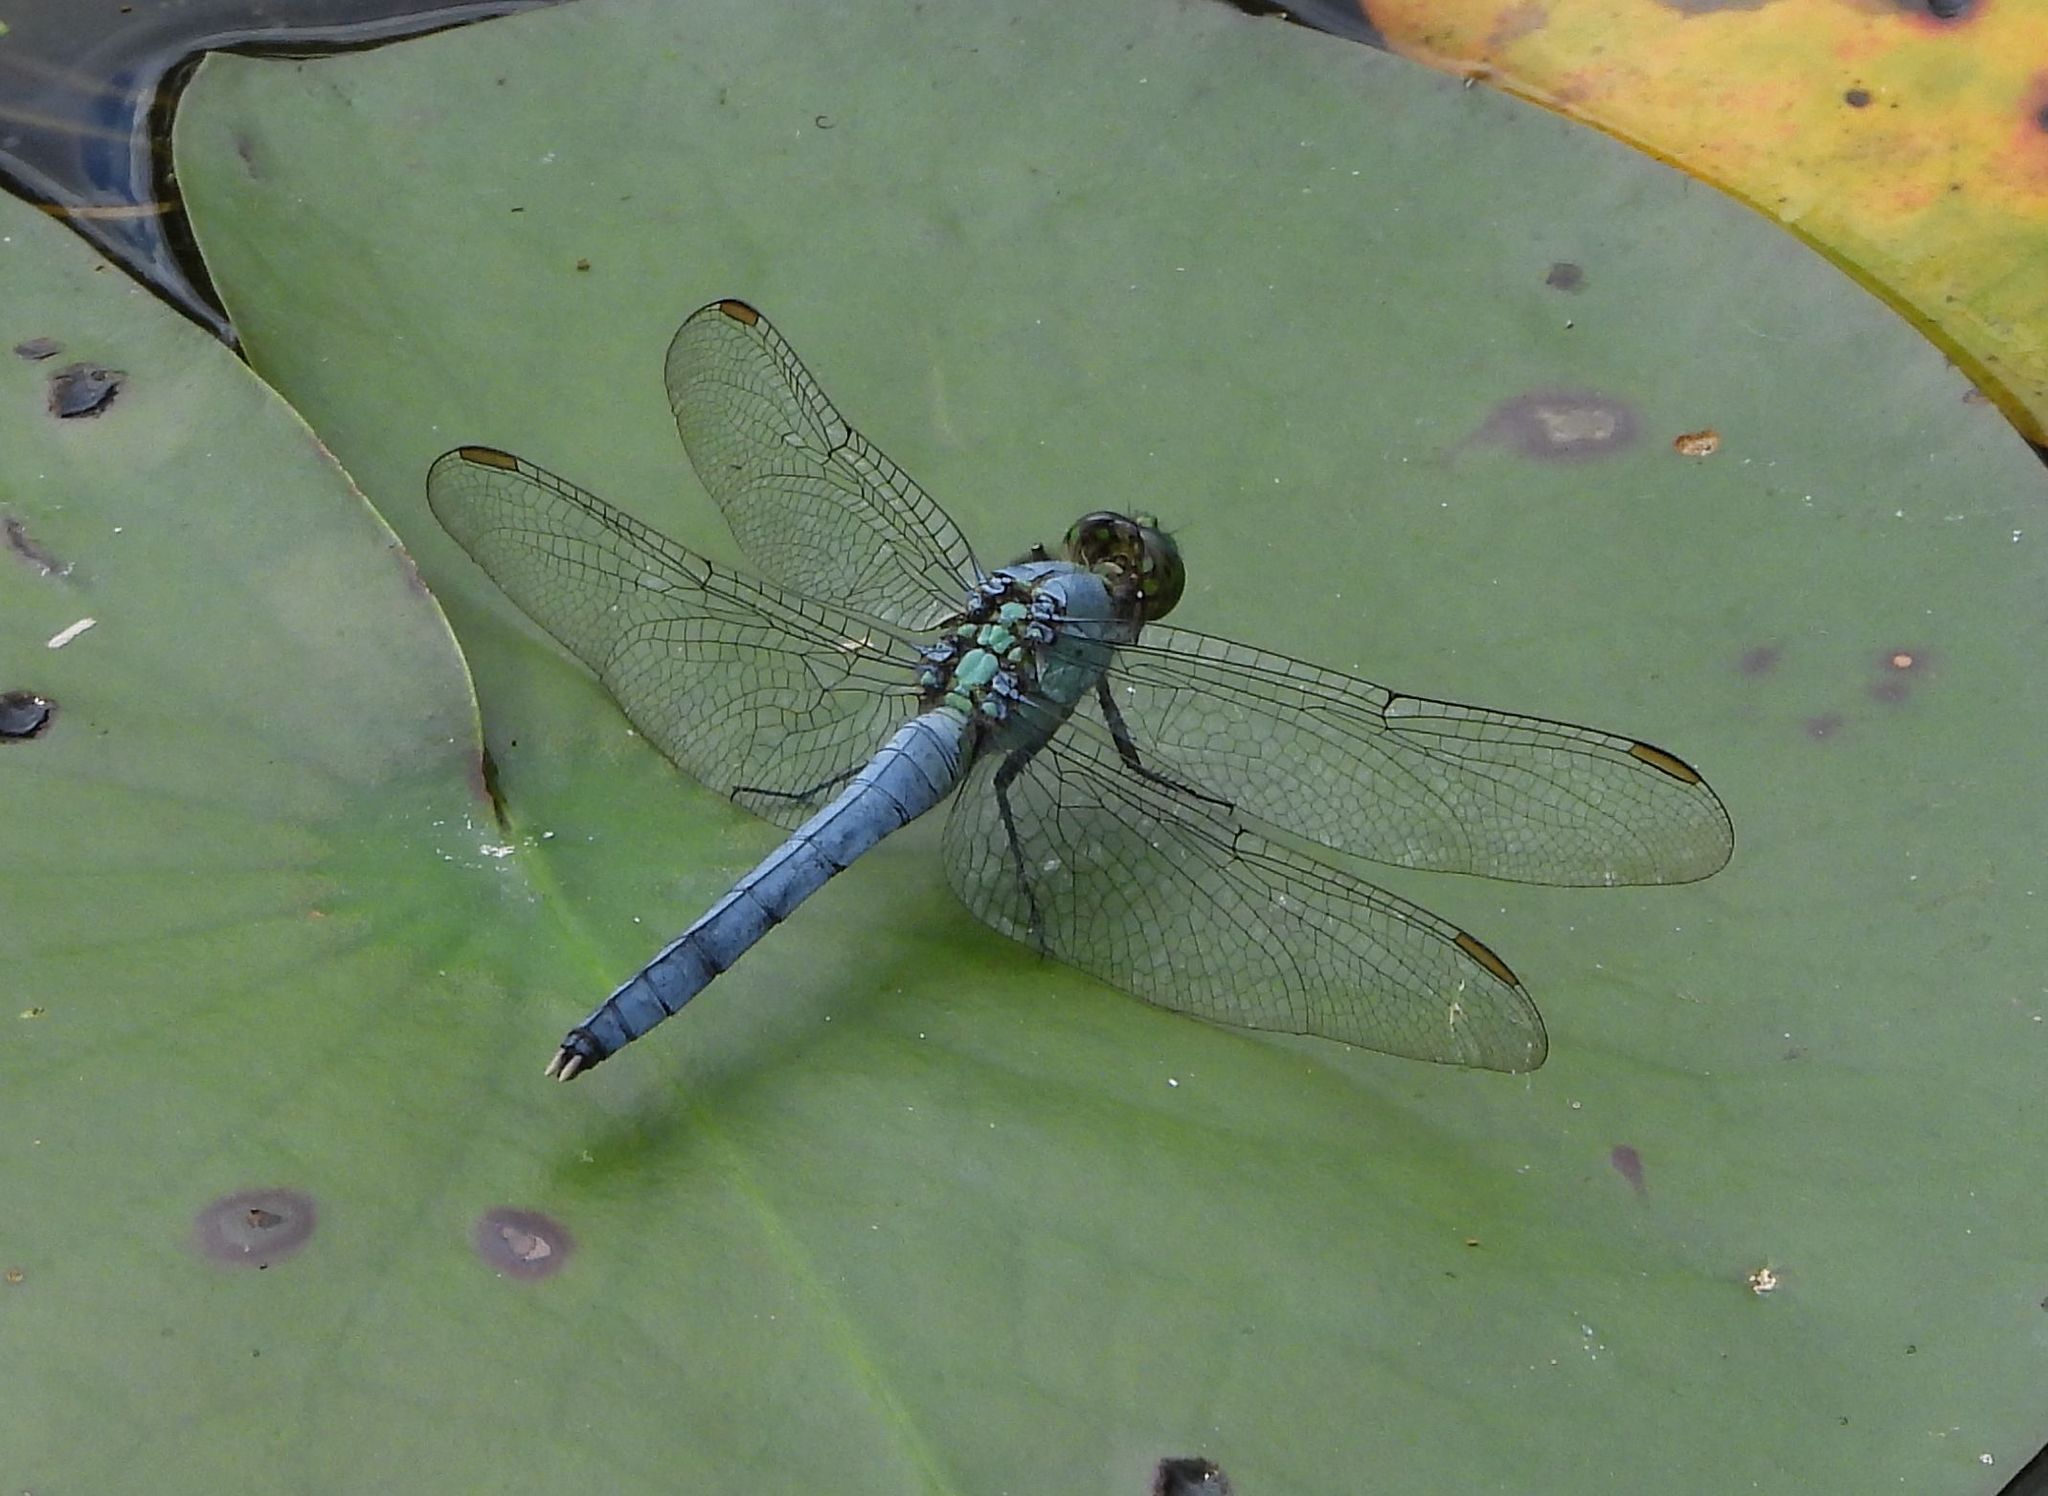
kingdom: Animalia
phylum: Arthropoda
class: Insecta
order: Odonata
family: Libellulidae
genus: Erythemis
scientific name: Erythemis simplicicollis
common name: Eastern pondhawk
